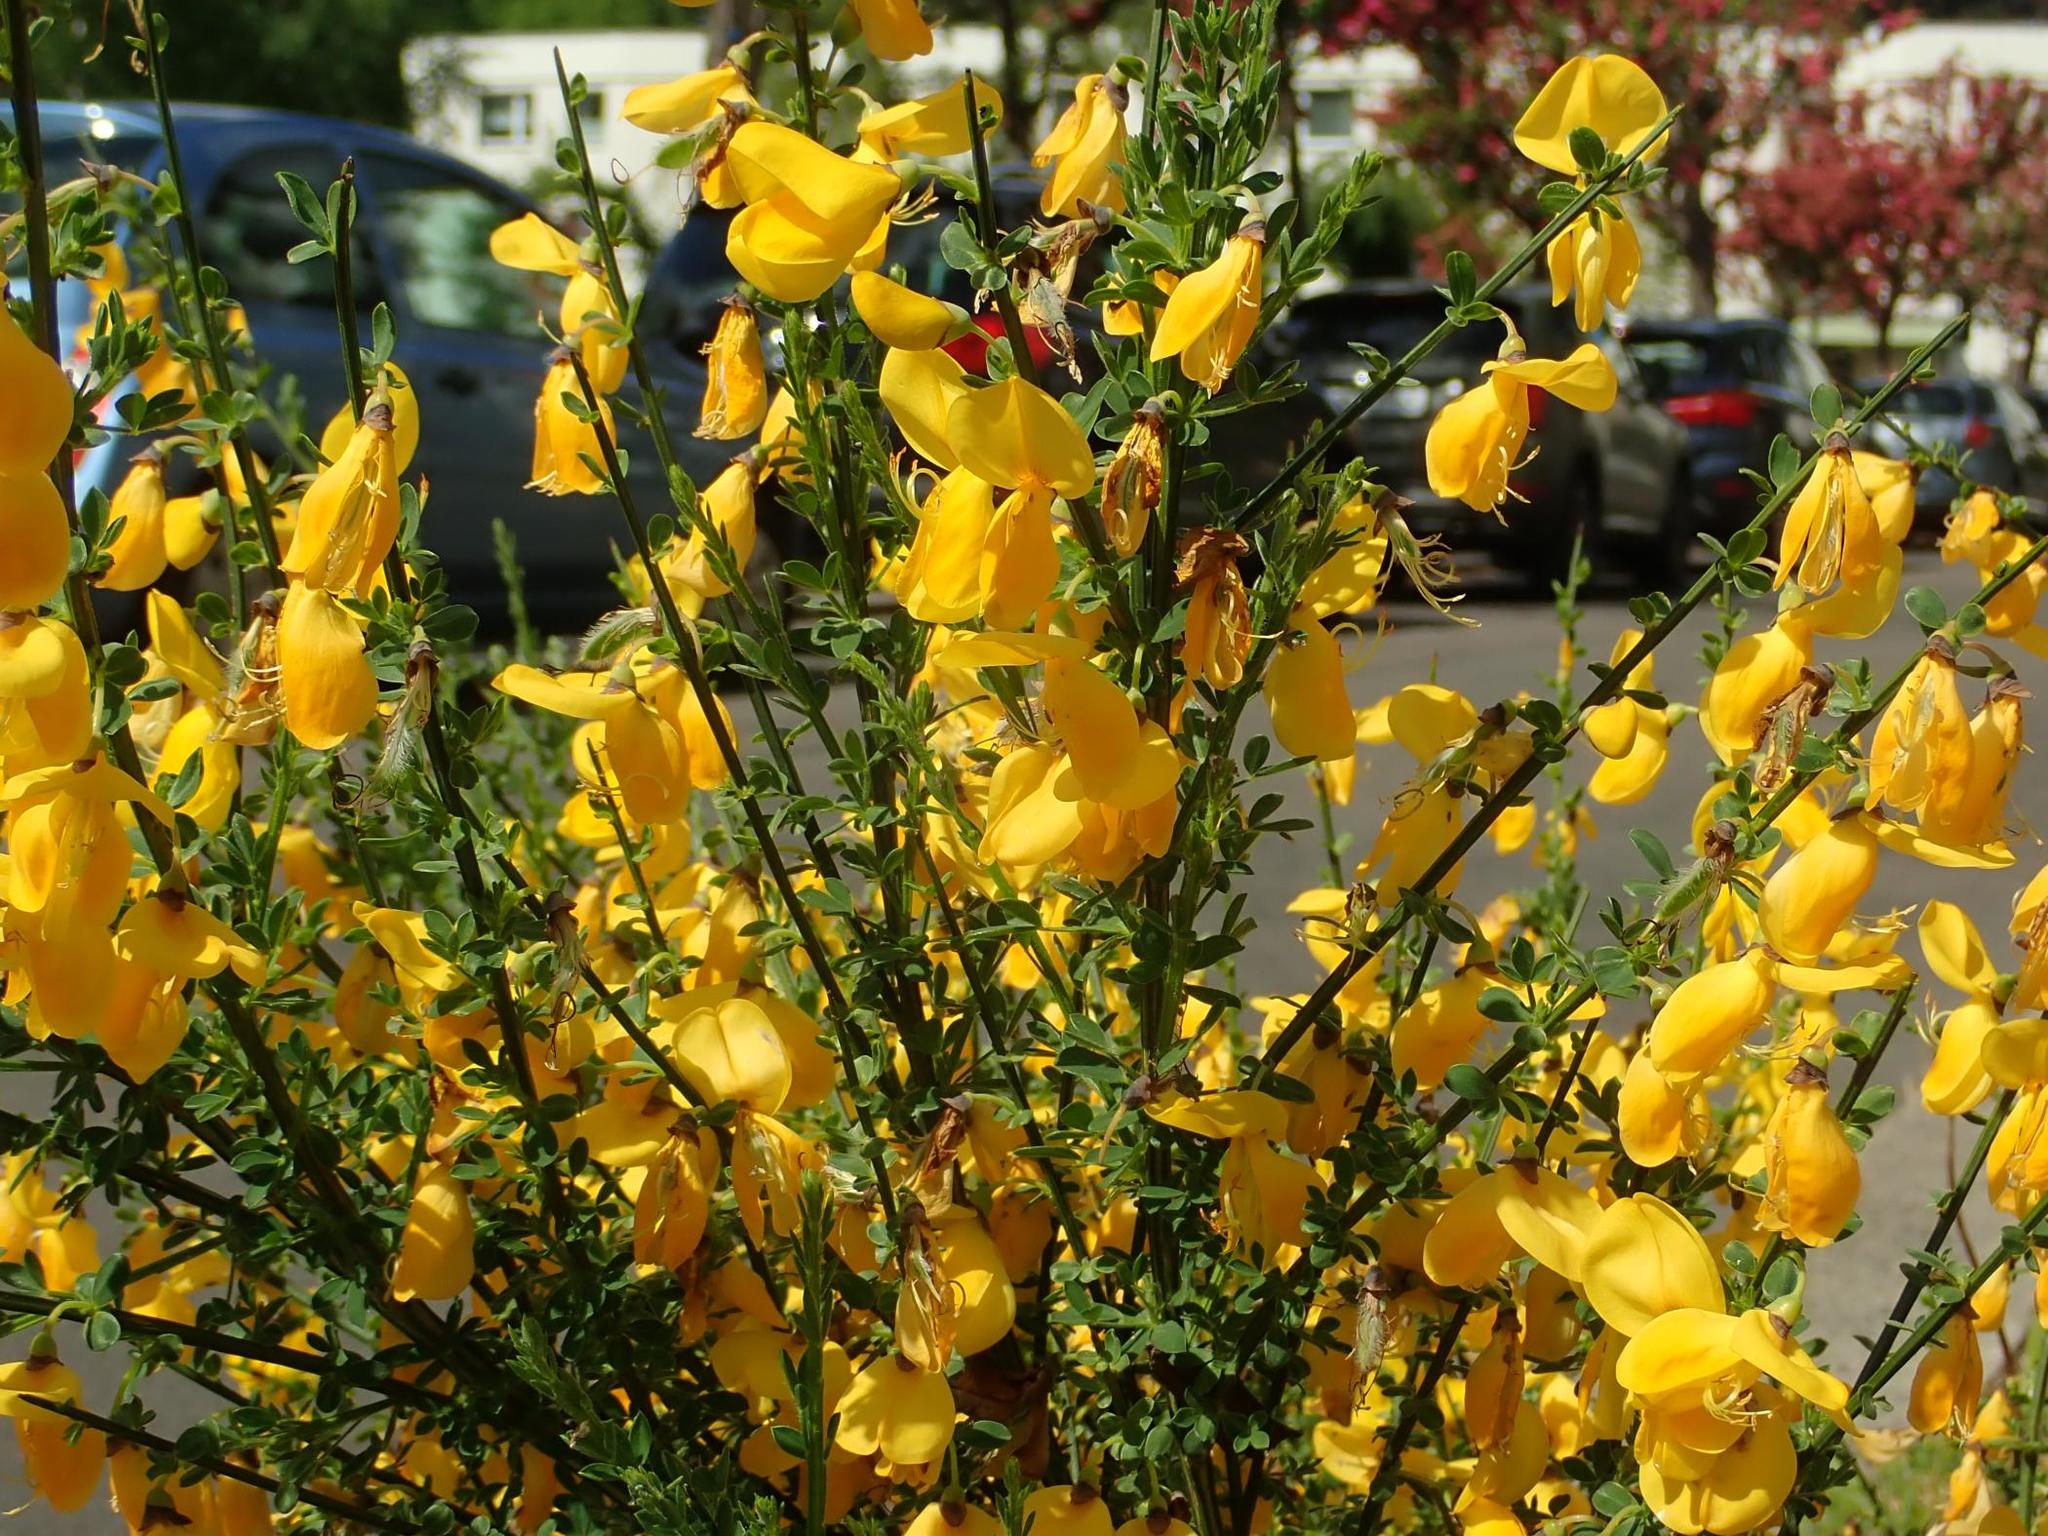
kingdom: Plantae
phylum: Tracheophyta
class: Magnoliopsida
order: Fabales
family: Fabaceae
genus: Cytisus
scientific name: Cytisus scoparius
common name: Scotch broom
